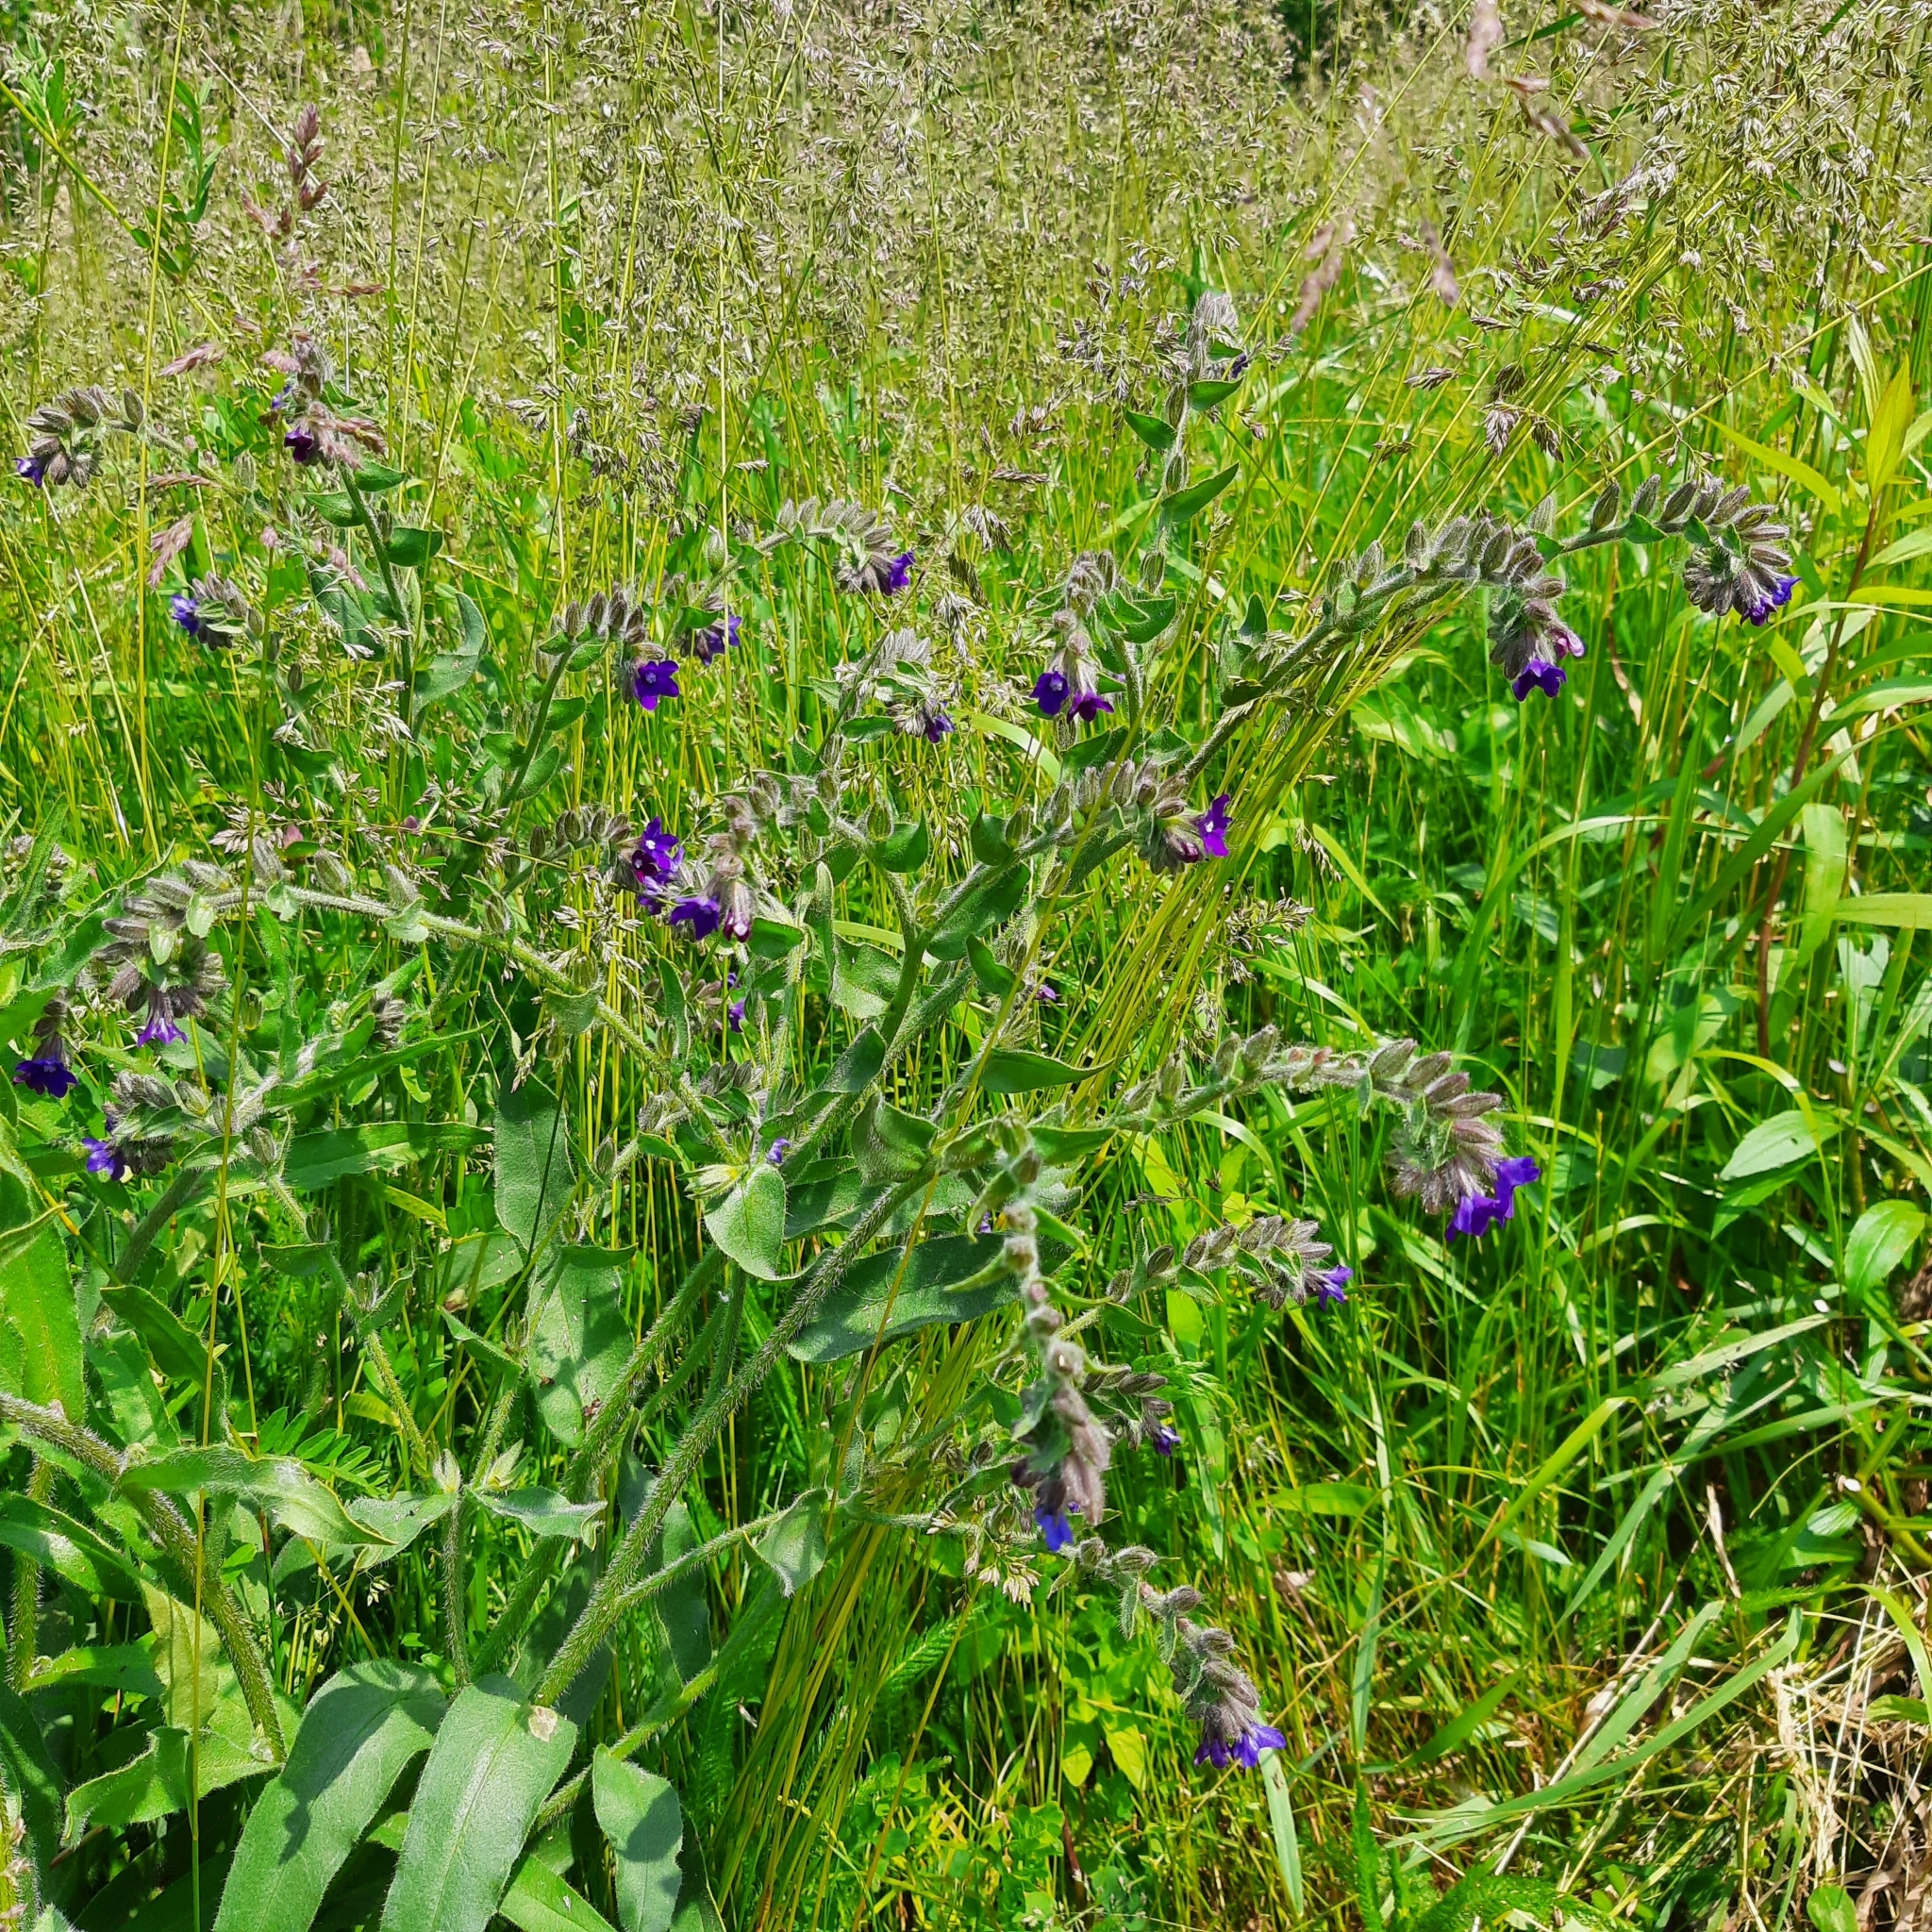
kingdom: Plantae
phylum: Tracheophyta
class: Magnoliopsida
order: Boraginales
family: Boraginaceae
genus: Anchusa
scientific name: Anchusa officinalis
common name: Alkanet
